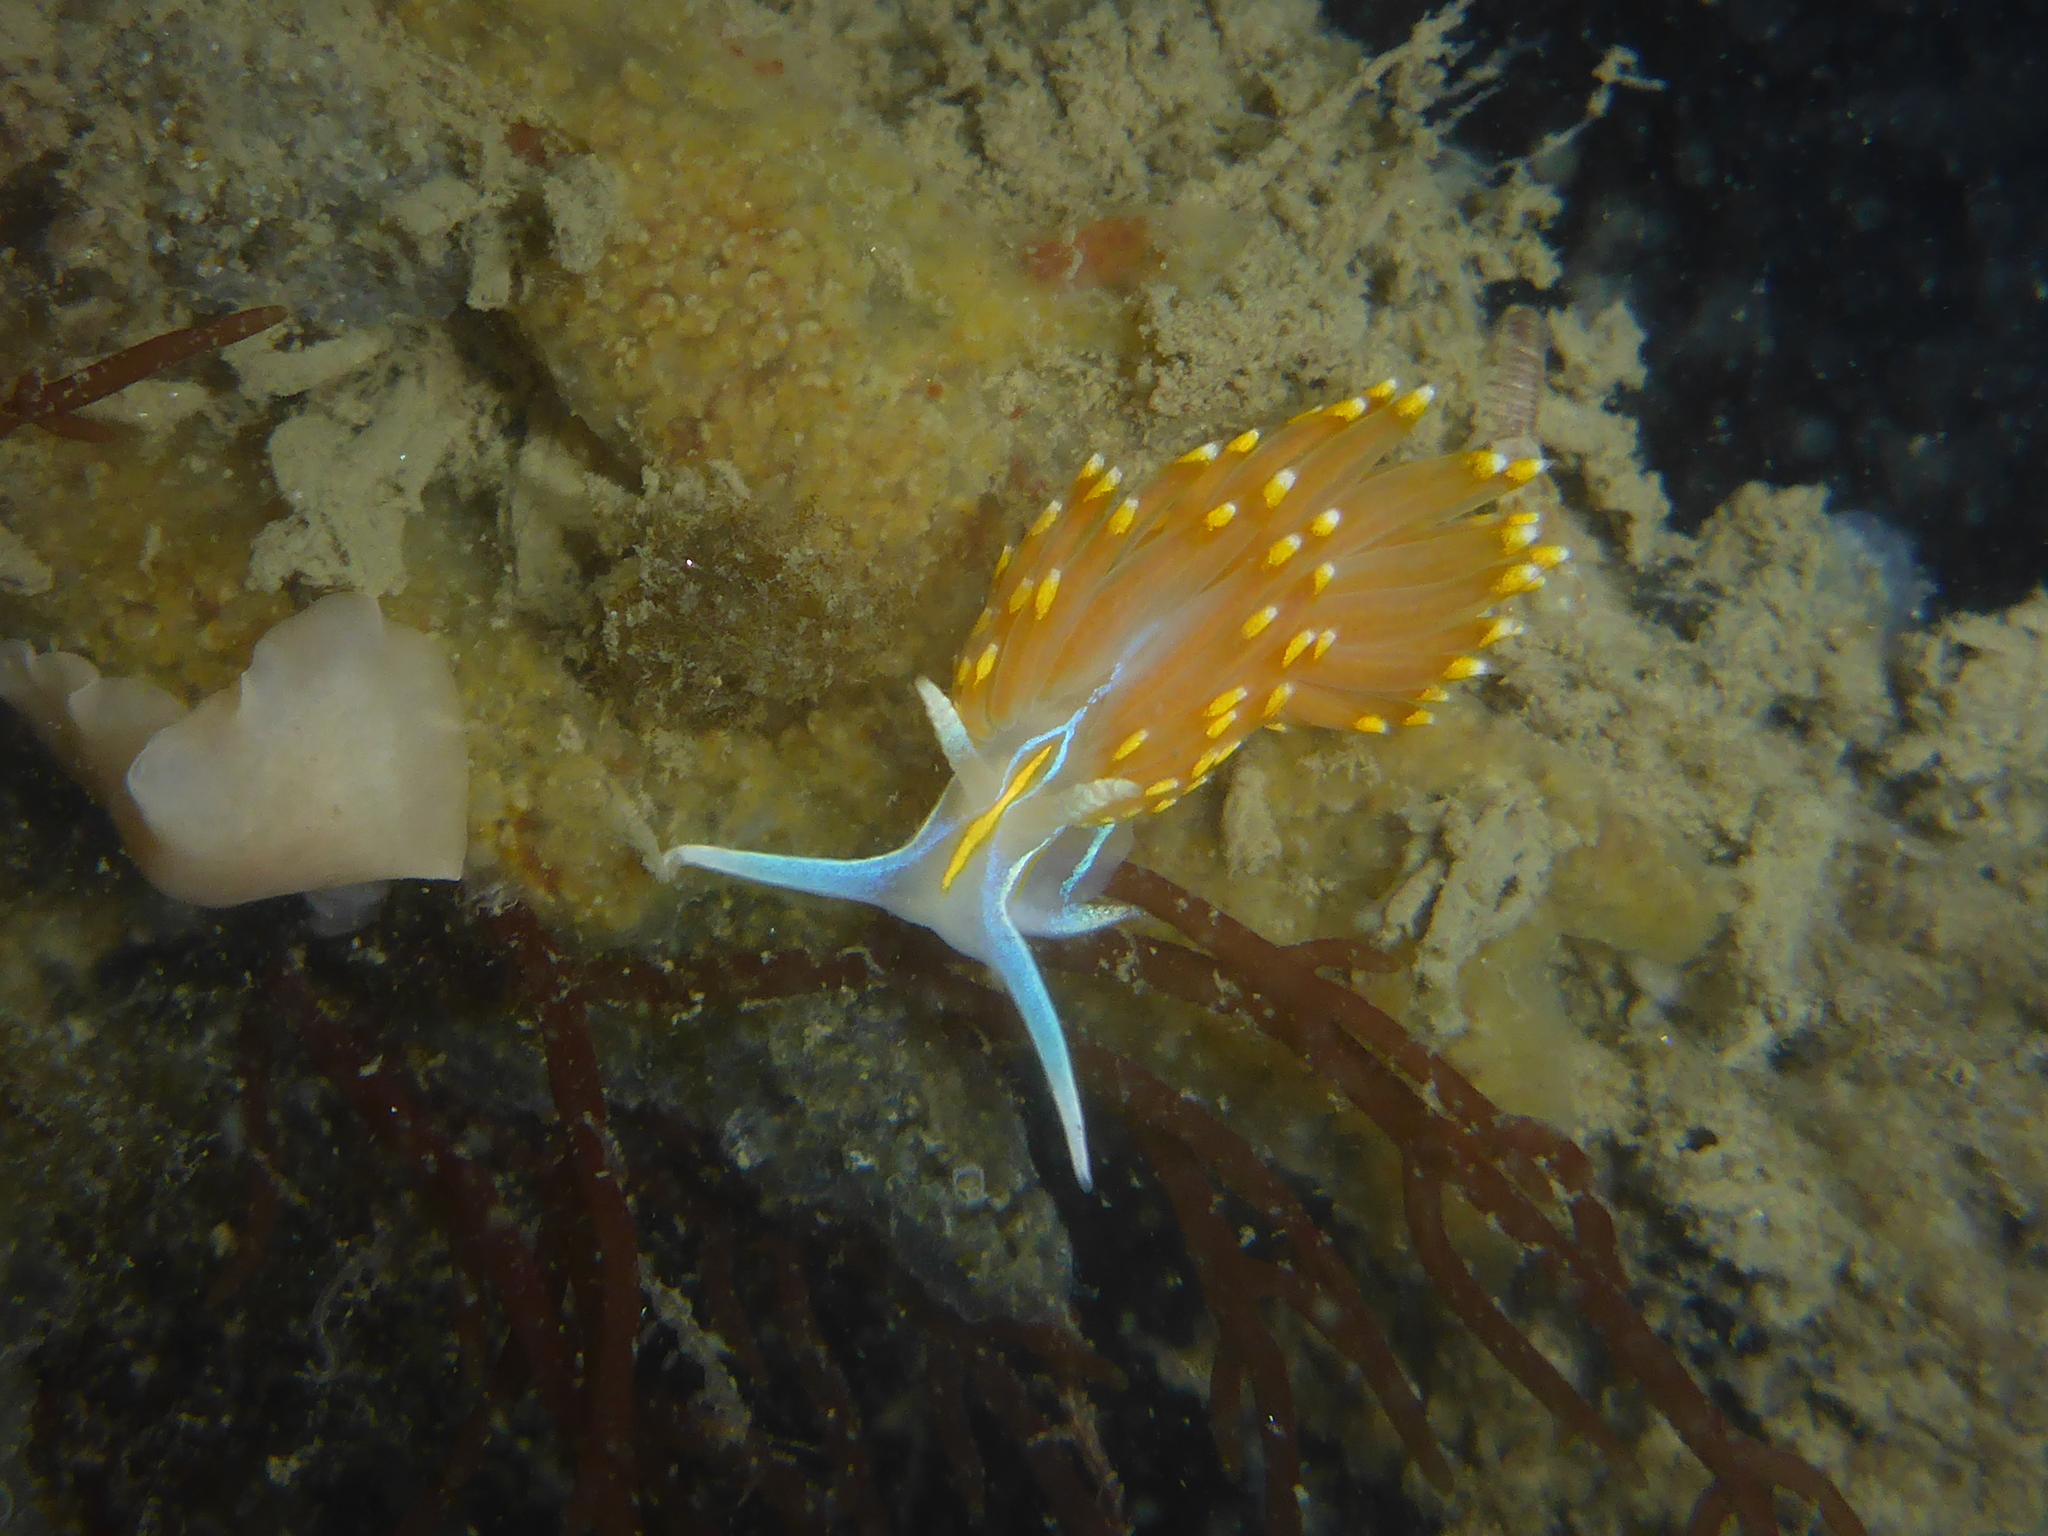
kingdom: Animalia
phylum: Mollusca
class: Gastropoda
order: Nudibranchia
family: Myrrhinidae
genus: Hermissenda
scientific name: Hermissenda opalescens
